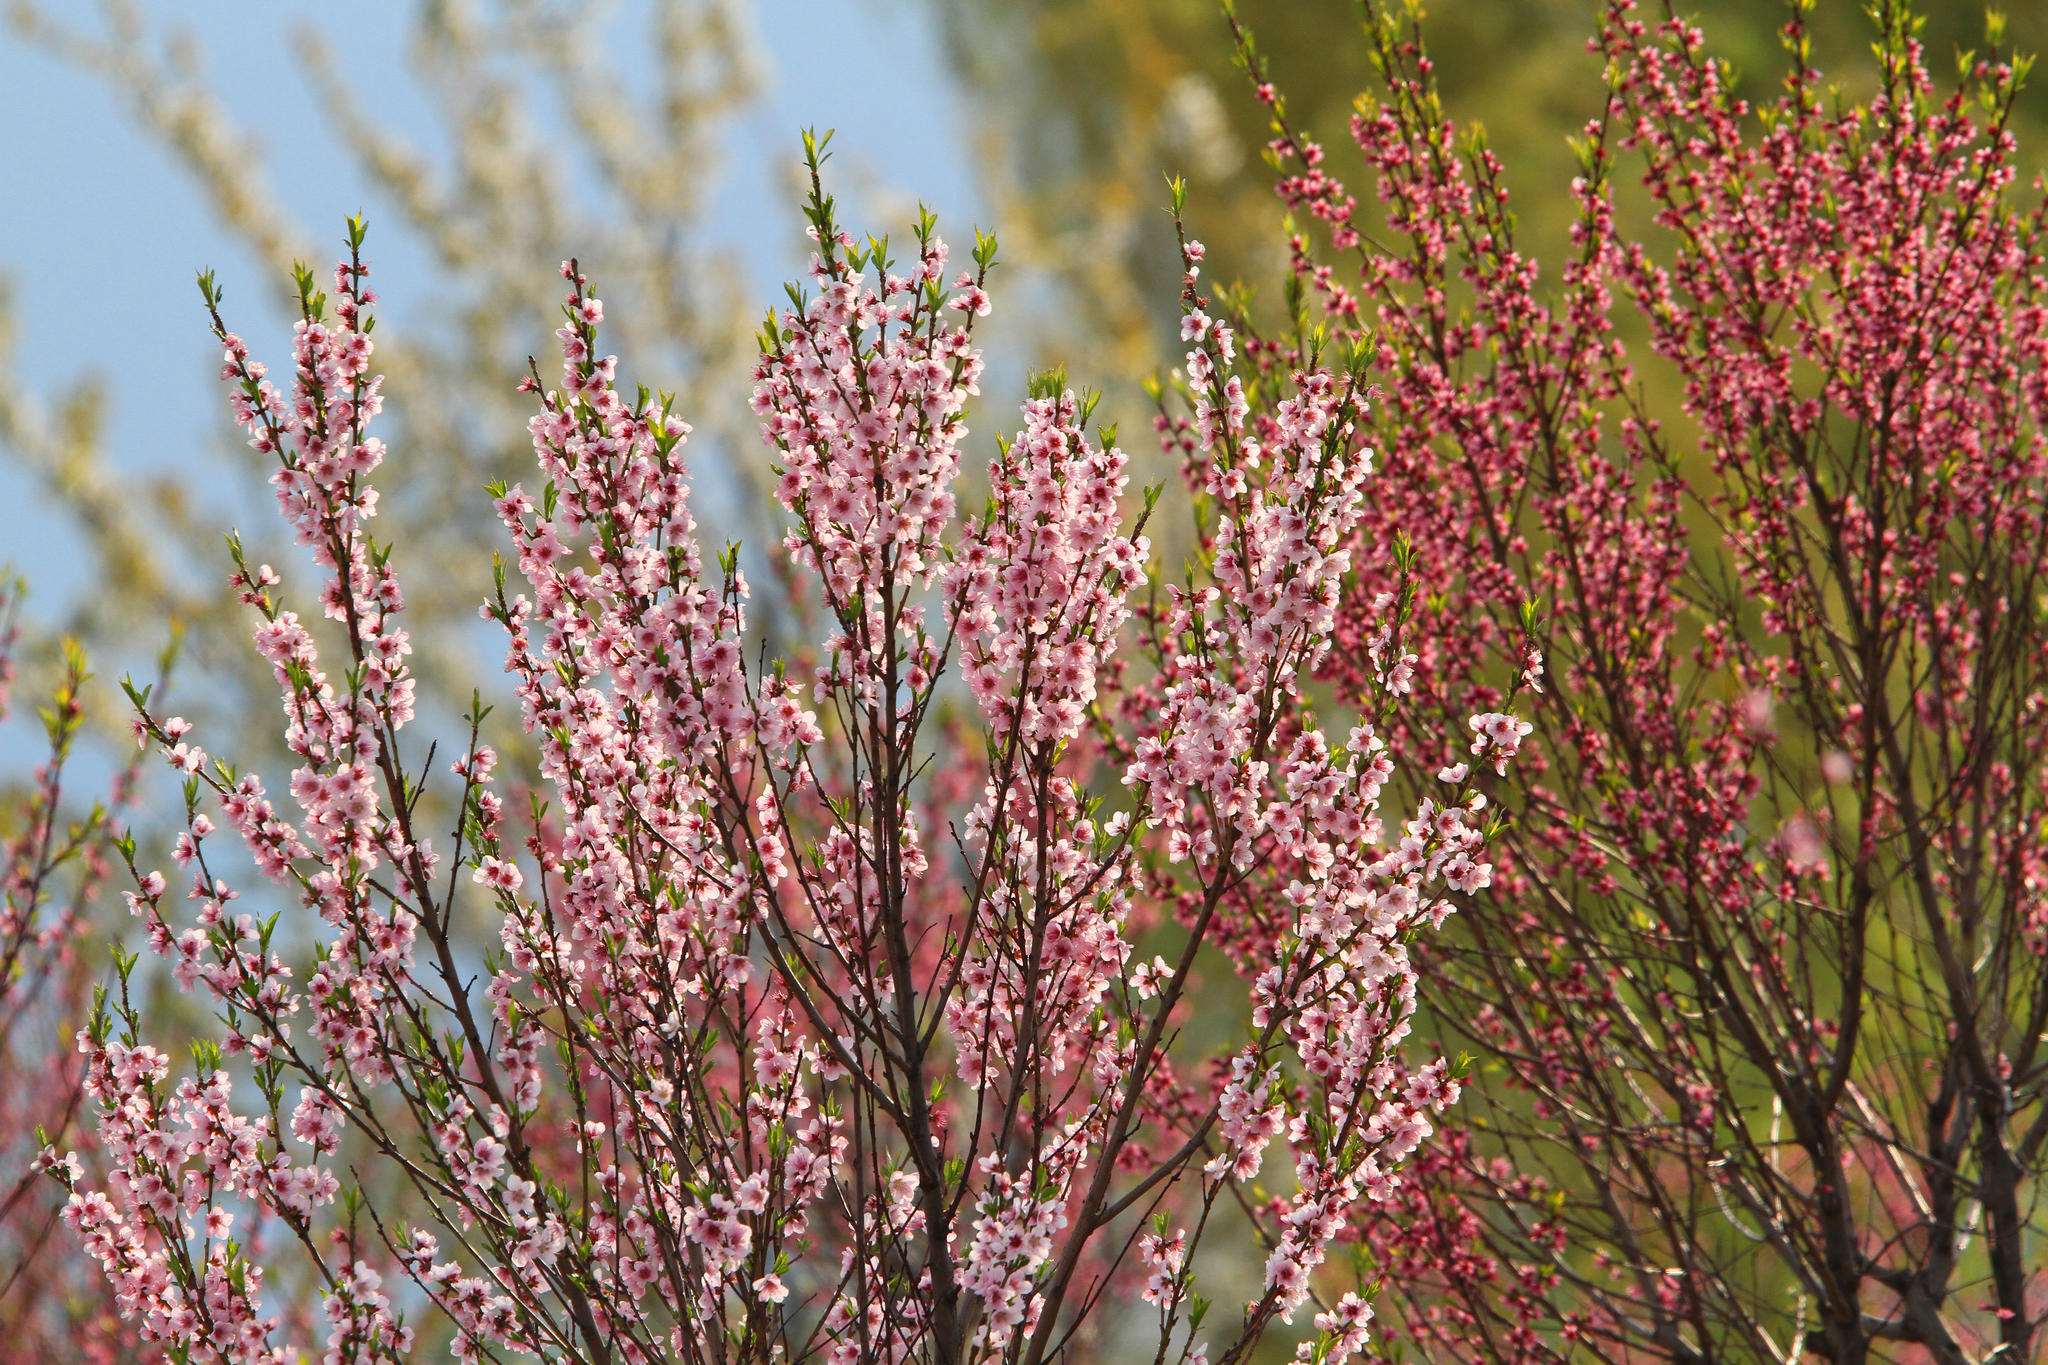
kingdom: Plantae
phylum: Tracheophyta
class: Magnoliopsida
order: Rosales
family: Rosaceae
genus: Prunus
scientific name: Prunus
